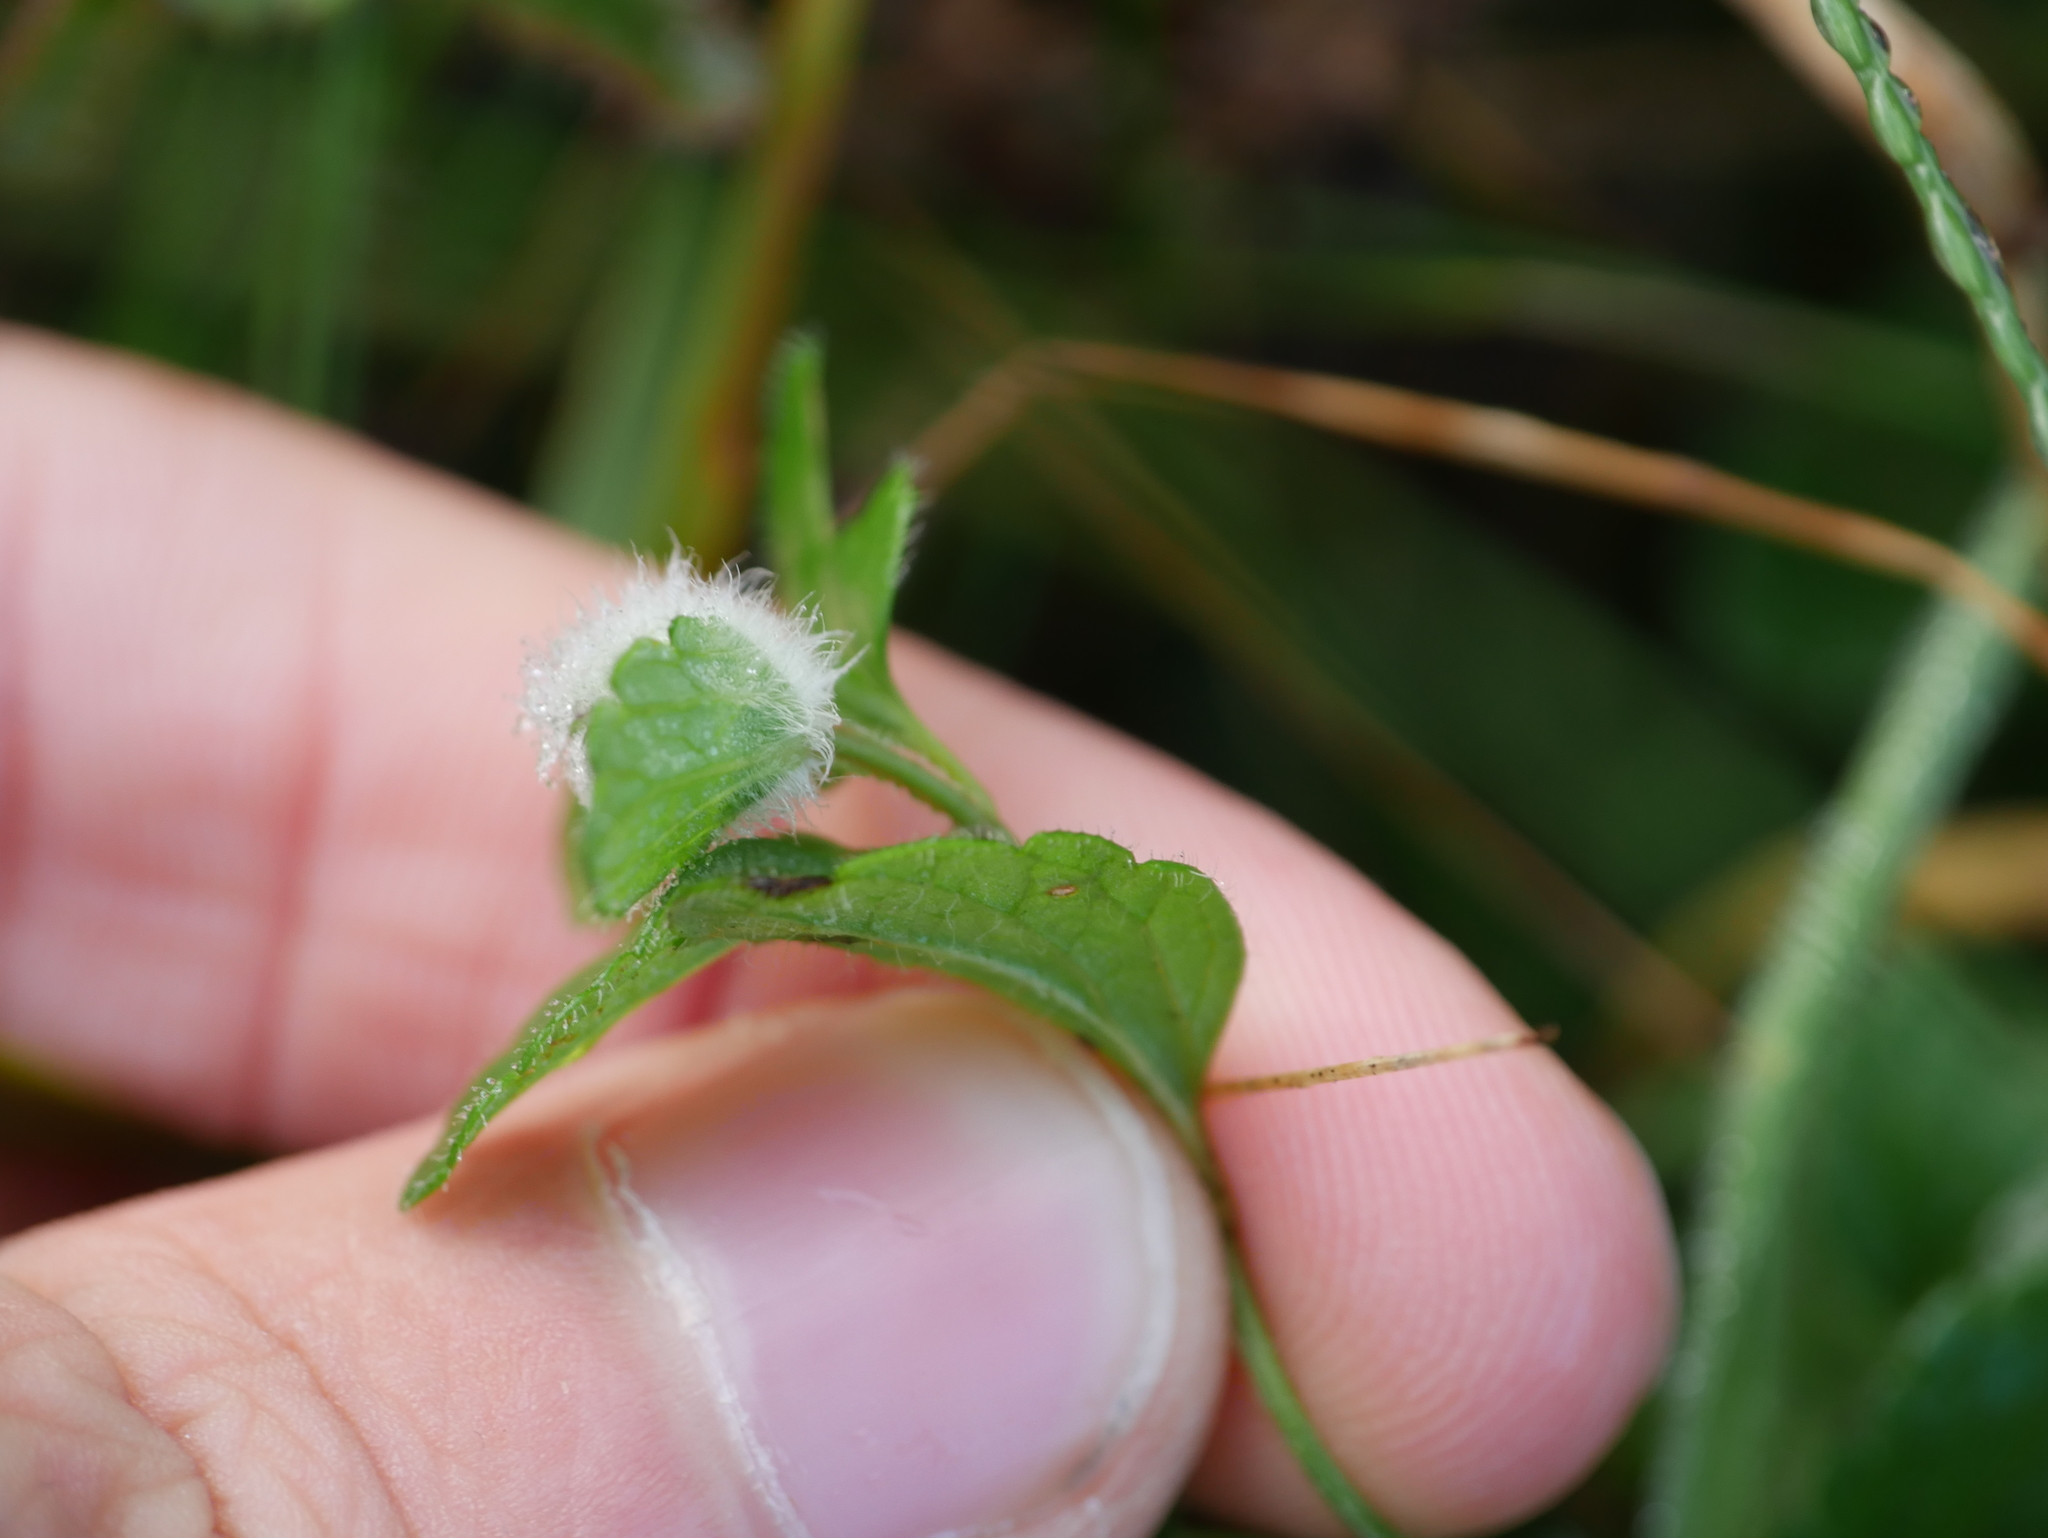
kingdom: Plantae
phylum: Tracheophyta
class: Magnoliopsida
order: Lamiales
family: Plantaginaceae
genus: Veronica
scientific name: Veronica chamaedrys
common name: Germander speedwell
